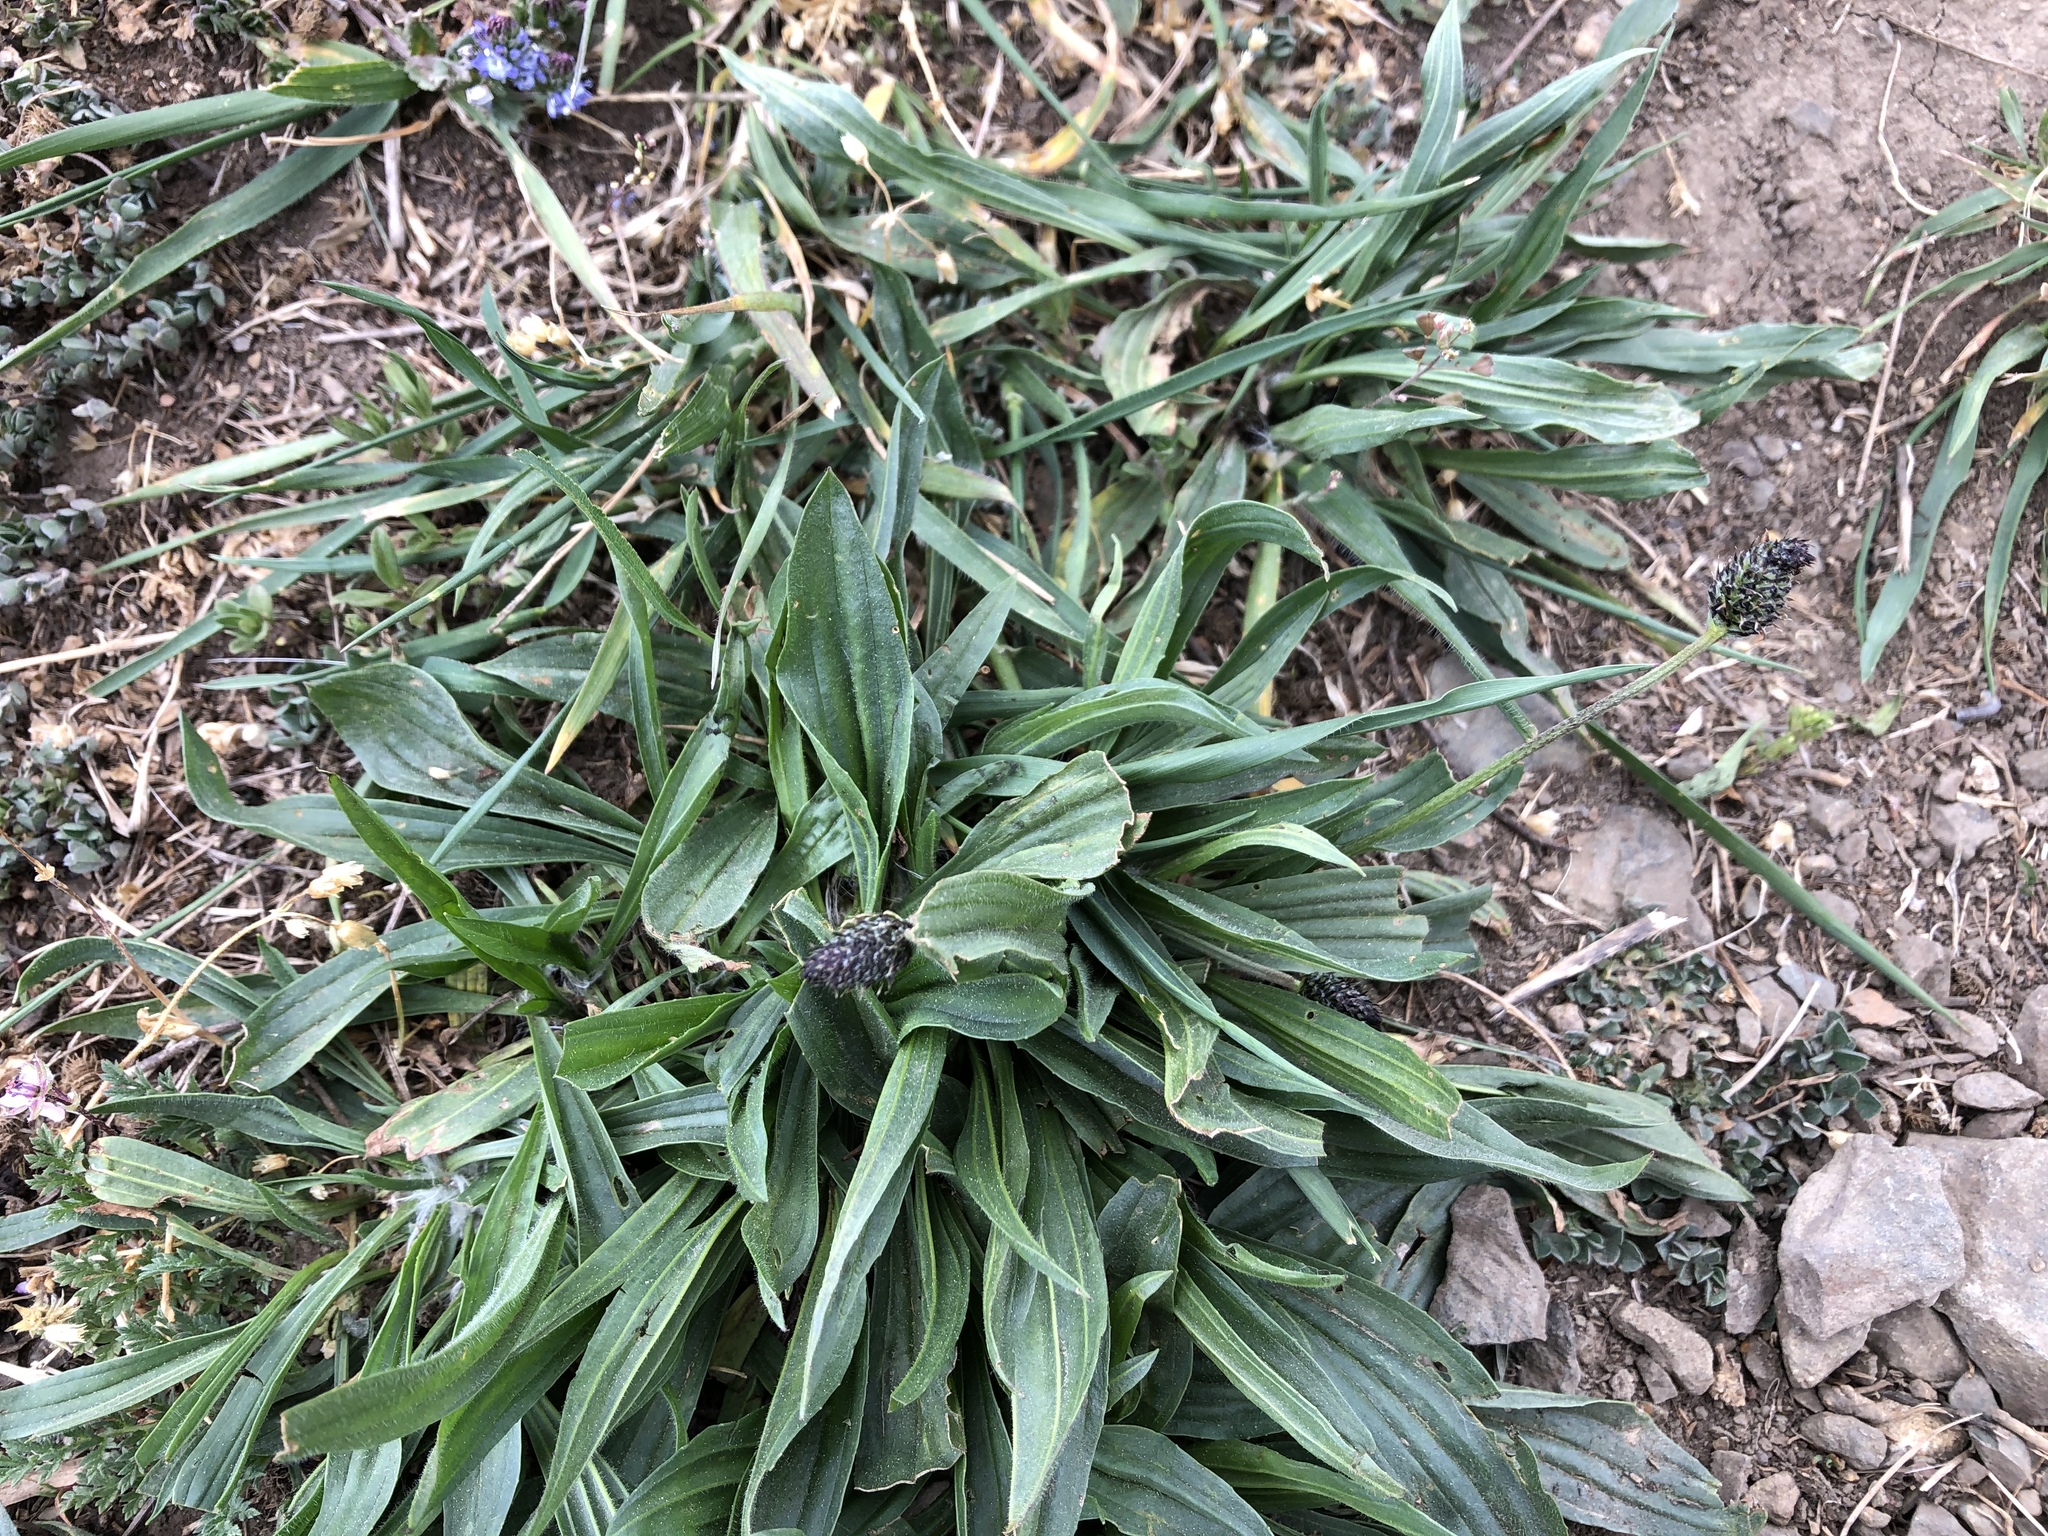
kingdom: Plantae
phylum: Tracheophyta
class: Magnoliopsida
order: Lamiales
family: Plantaginaceae
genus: Plantago
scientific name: Plantago lanceolata
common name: Ribwort plantain
